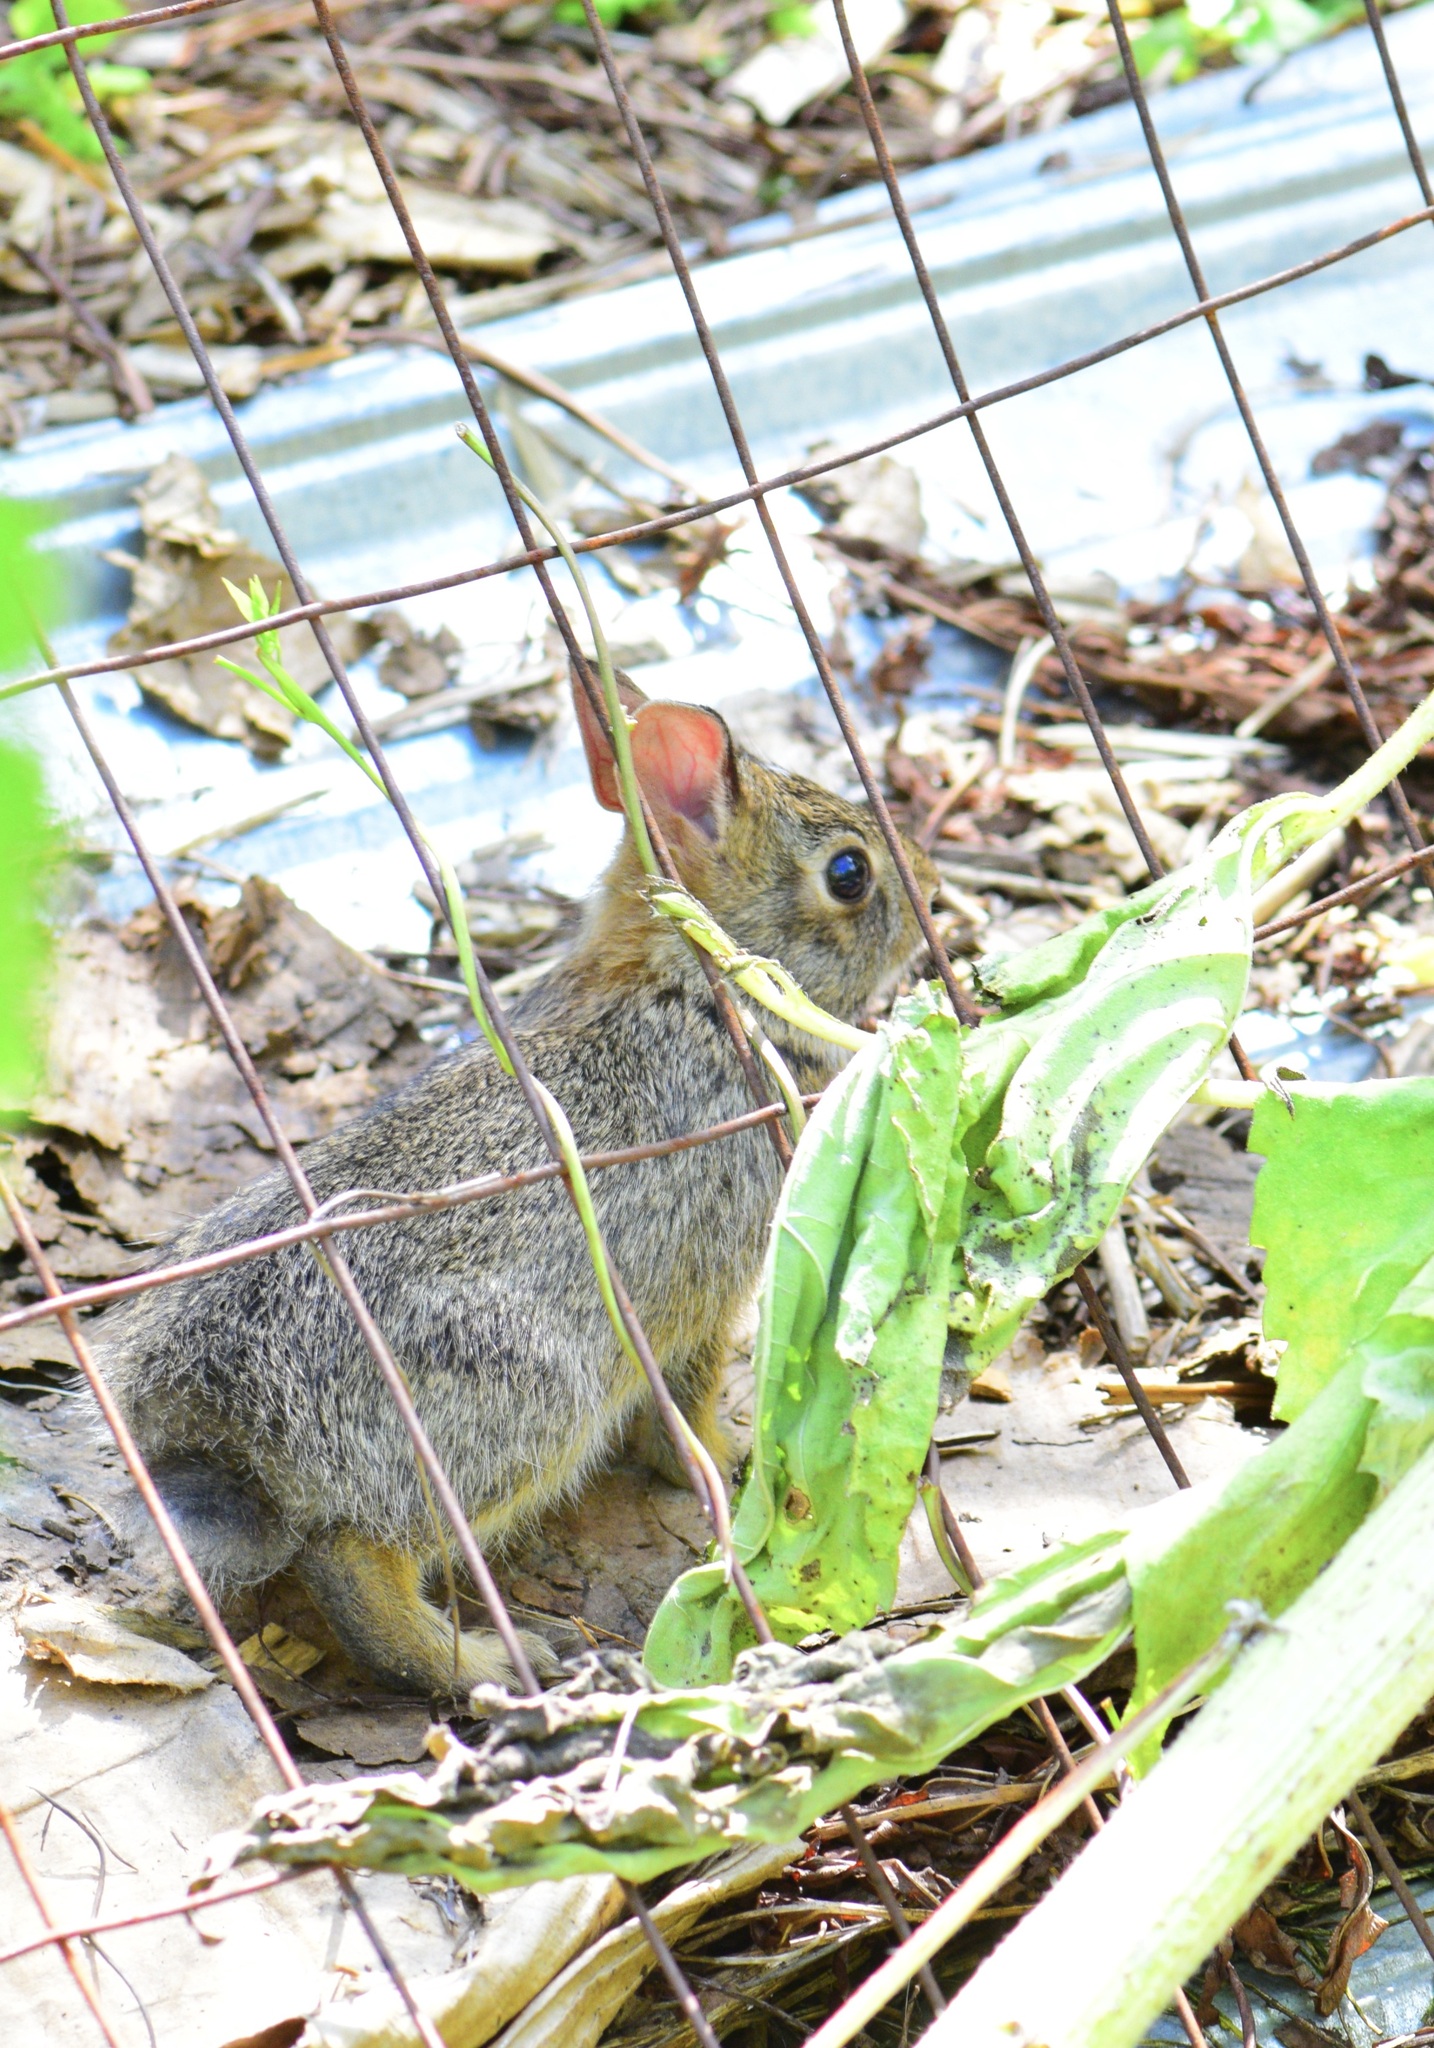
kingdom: Animalia
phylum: Chordata
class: Mammalia
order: Lagomorpha
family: Leporidae
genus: Sylvilagus
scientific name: Sylvilagus floridanus
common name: Eastern cottontail
